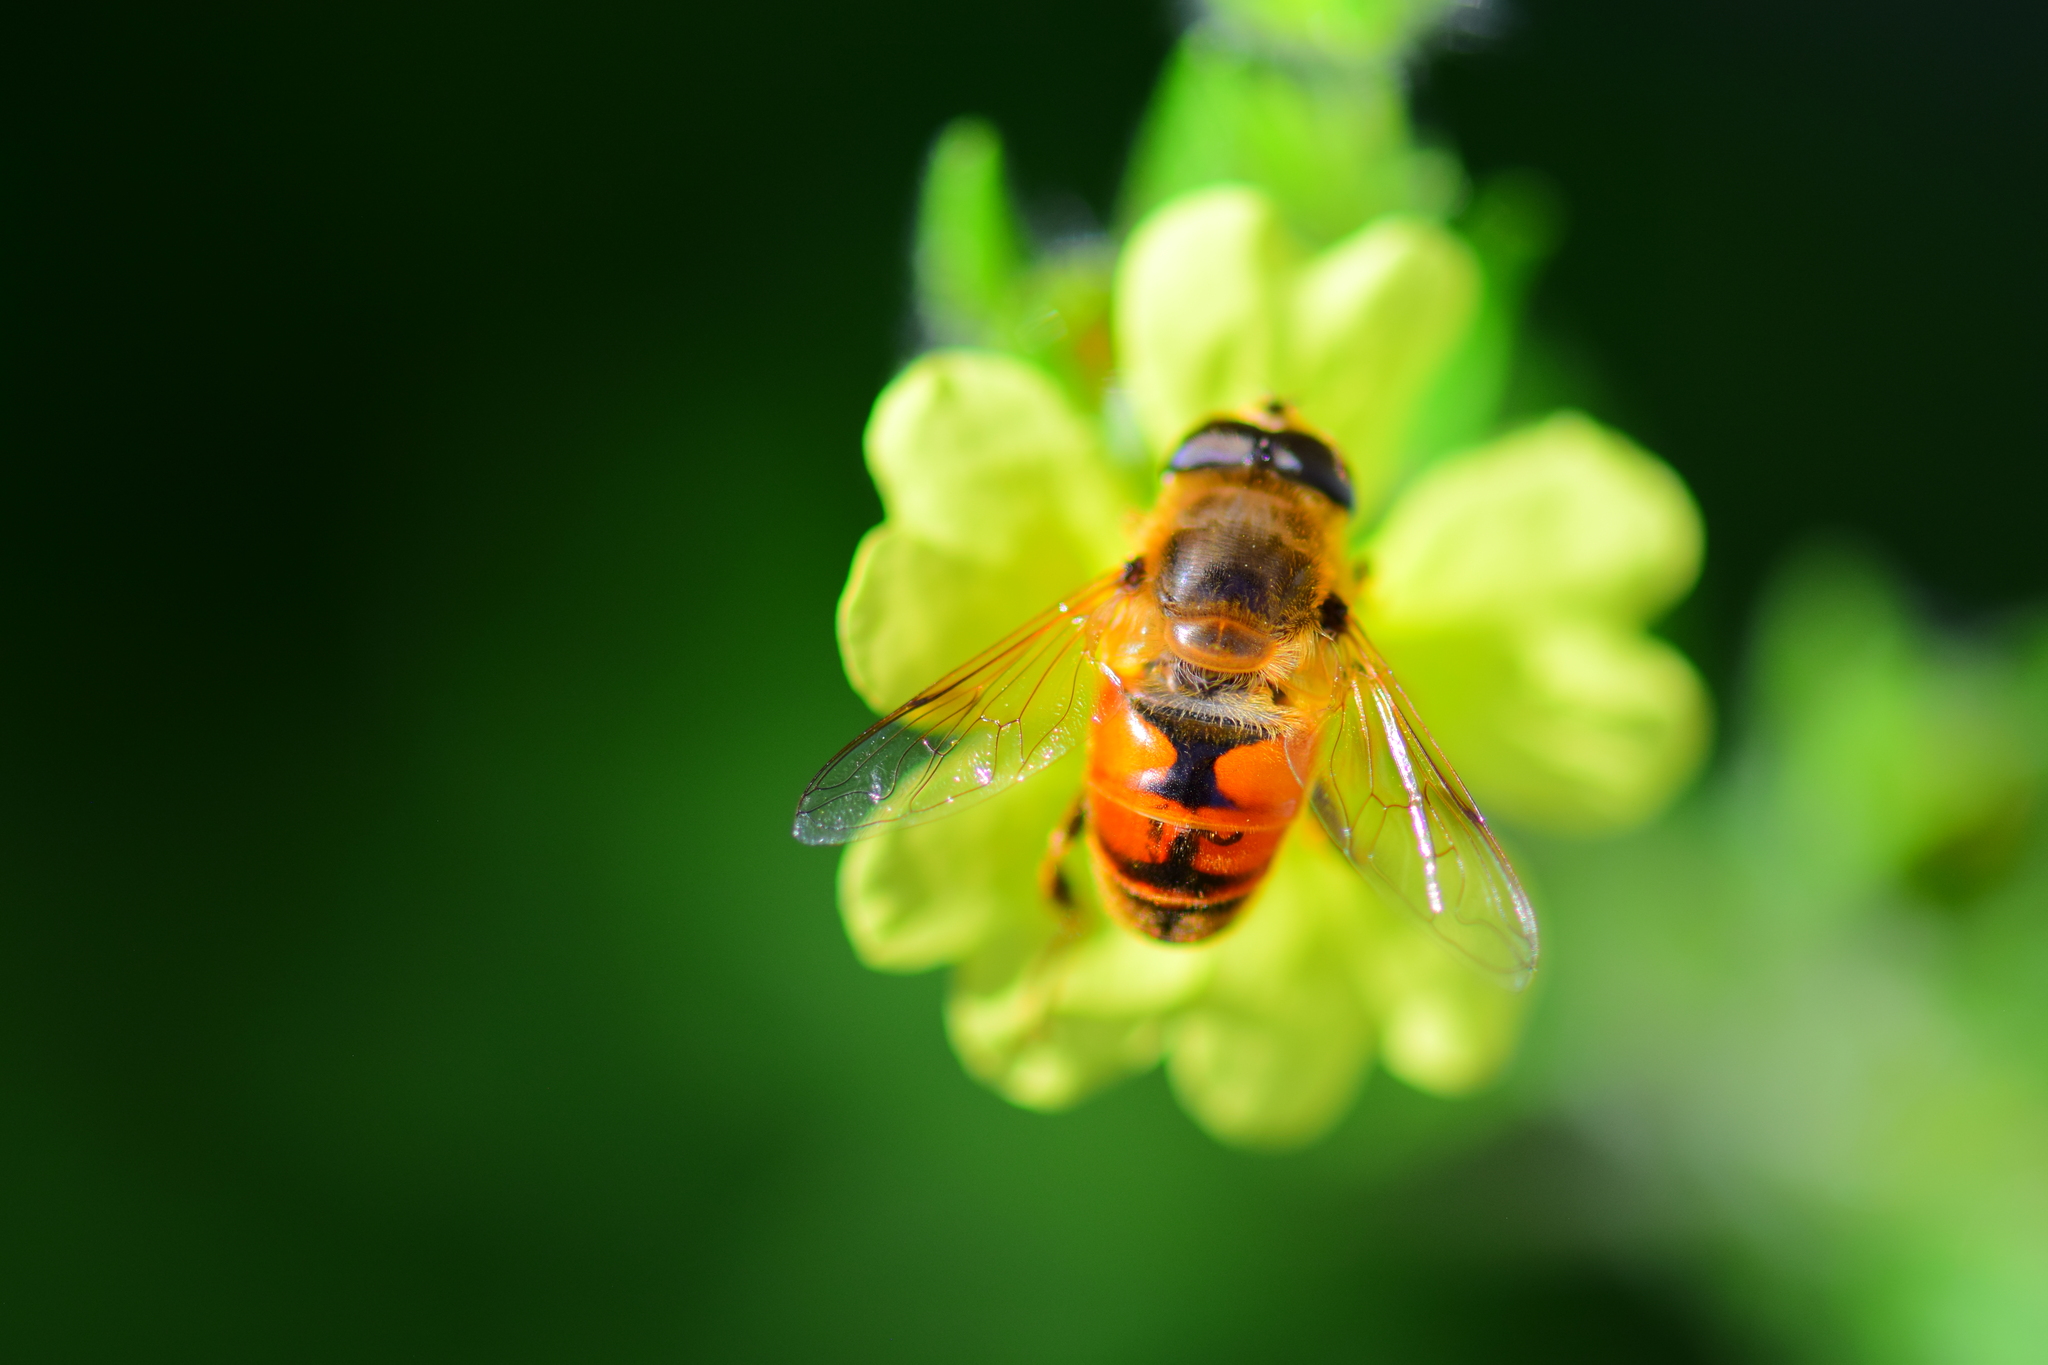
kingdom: Animalia
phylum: Arthropoda
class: Insecta
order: Diptera
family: Syrphidae
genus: Eristalis
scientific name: Eristalis tenax
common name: Drone fly
